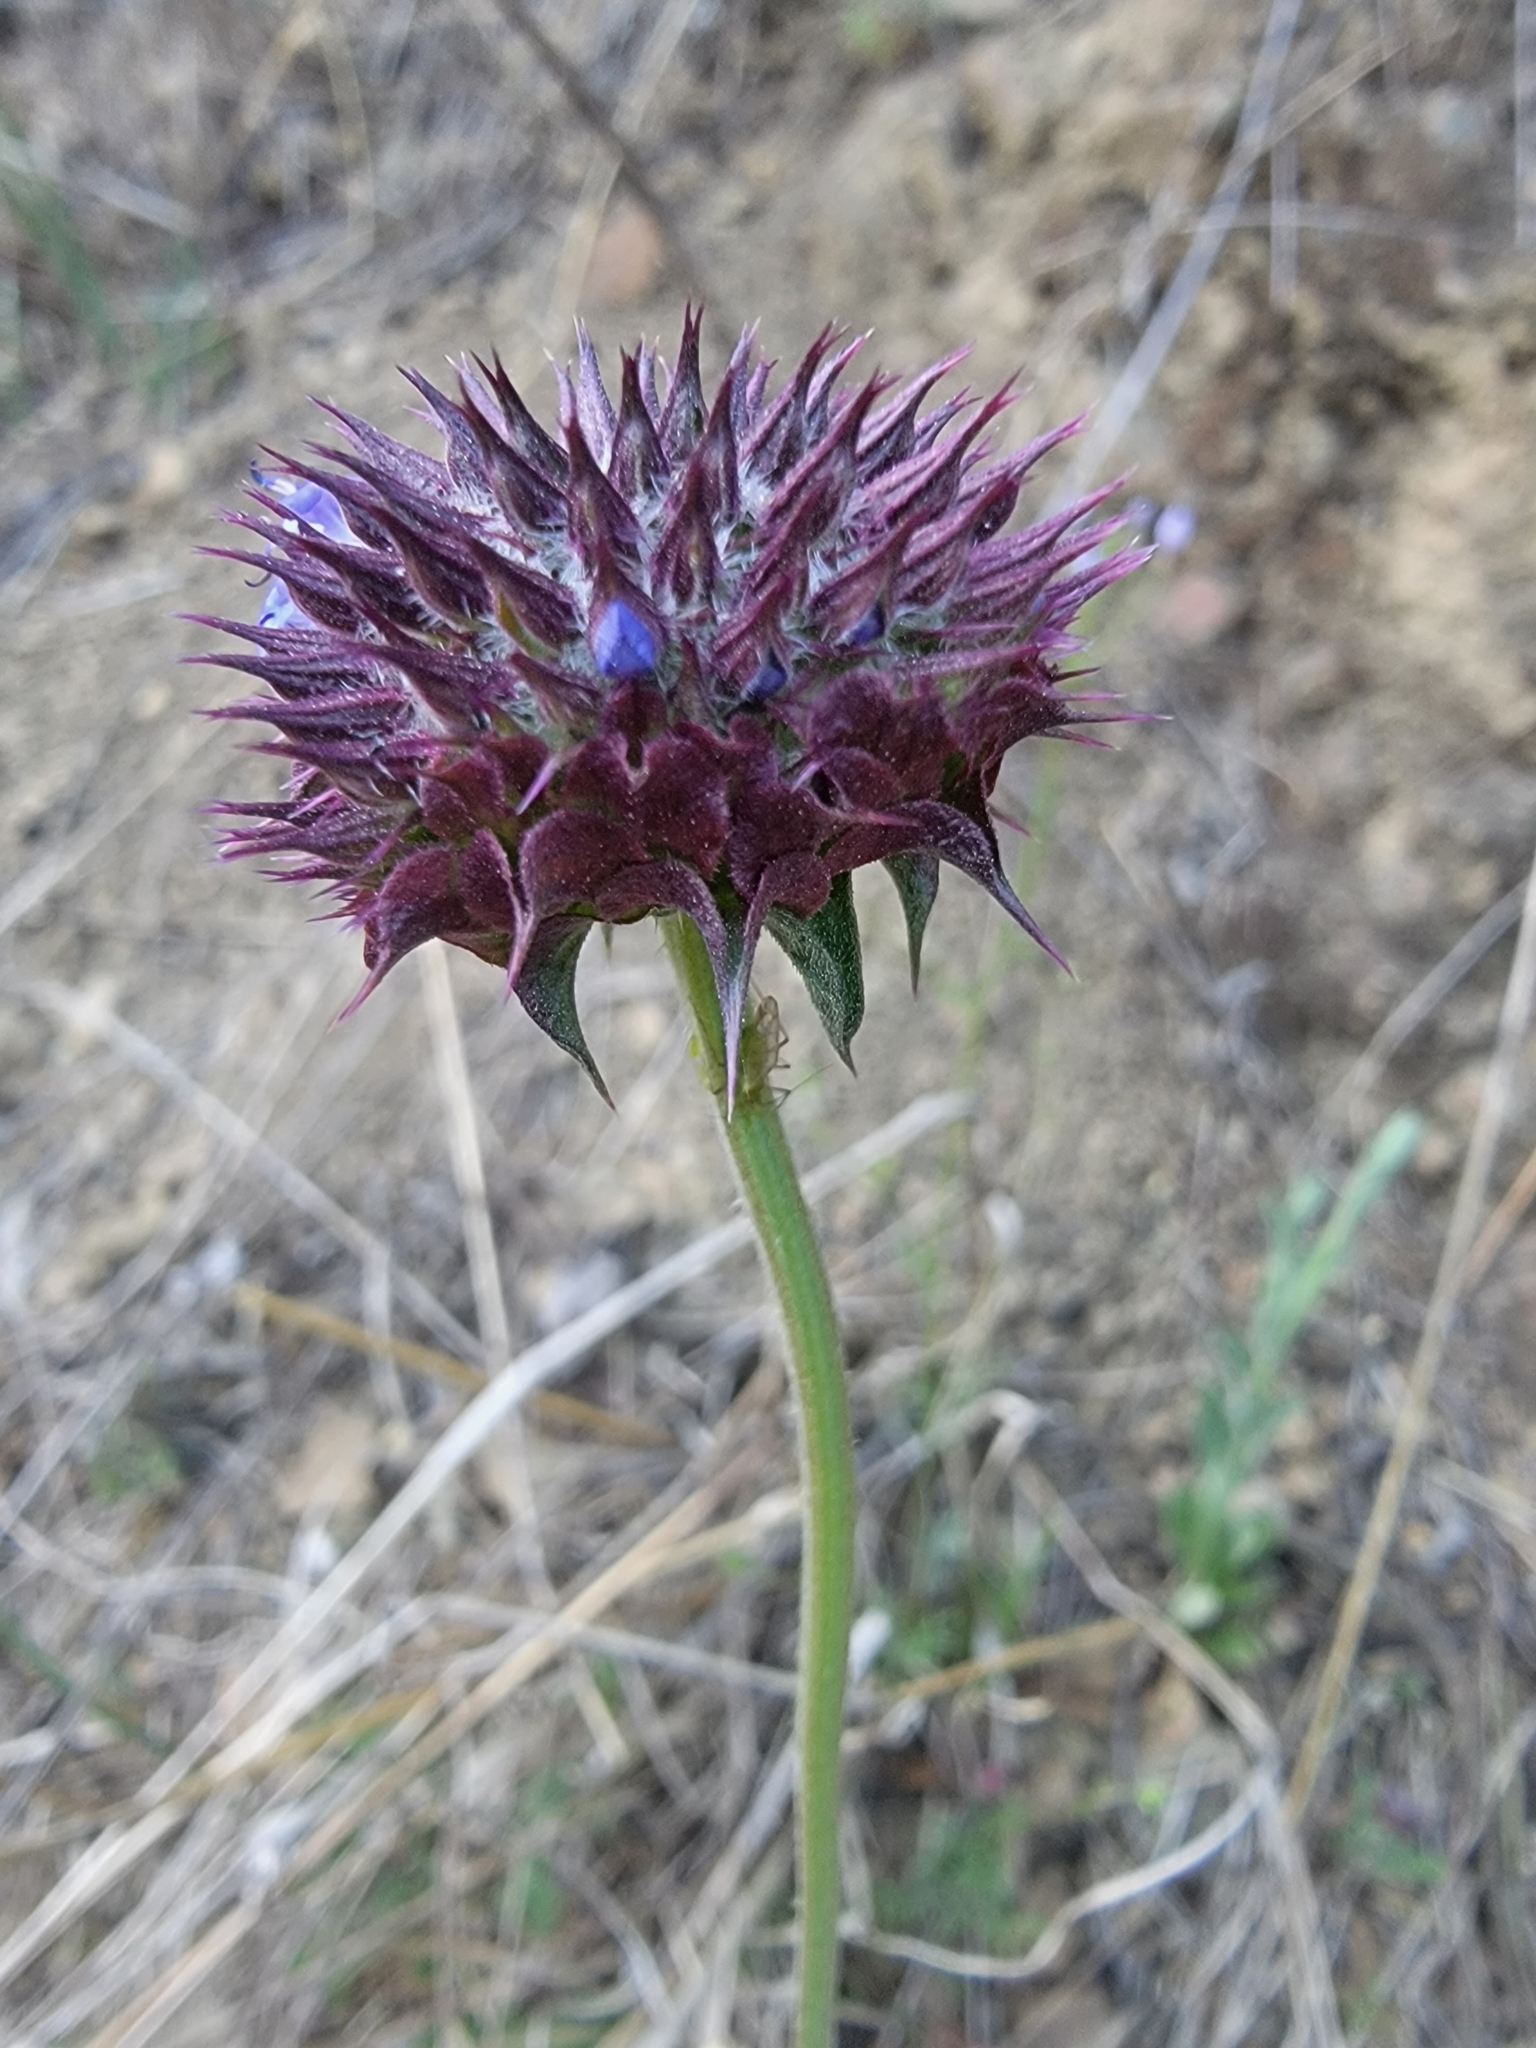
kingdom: Plantae
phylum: Tracheophyta
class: Magnoliopsida
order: Lamiales
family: Lamiaceae
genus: Salvia
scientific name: Salvia columbariae
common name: Chia
